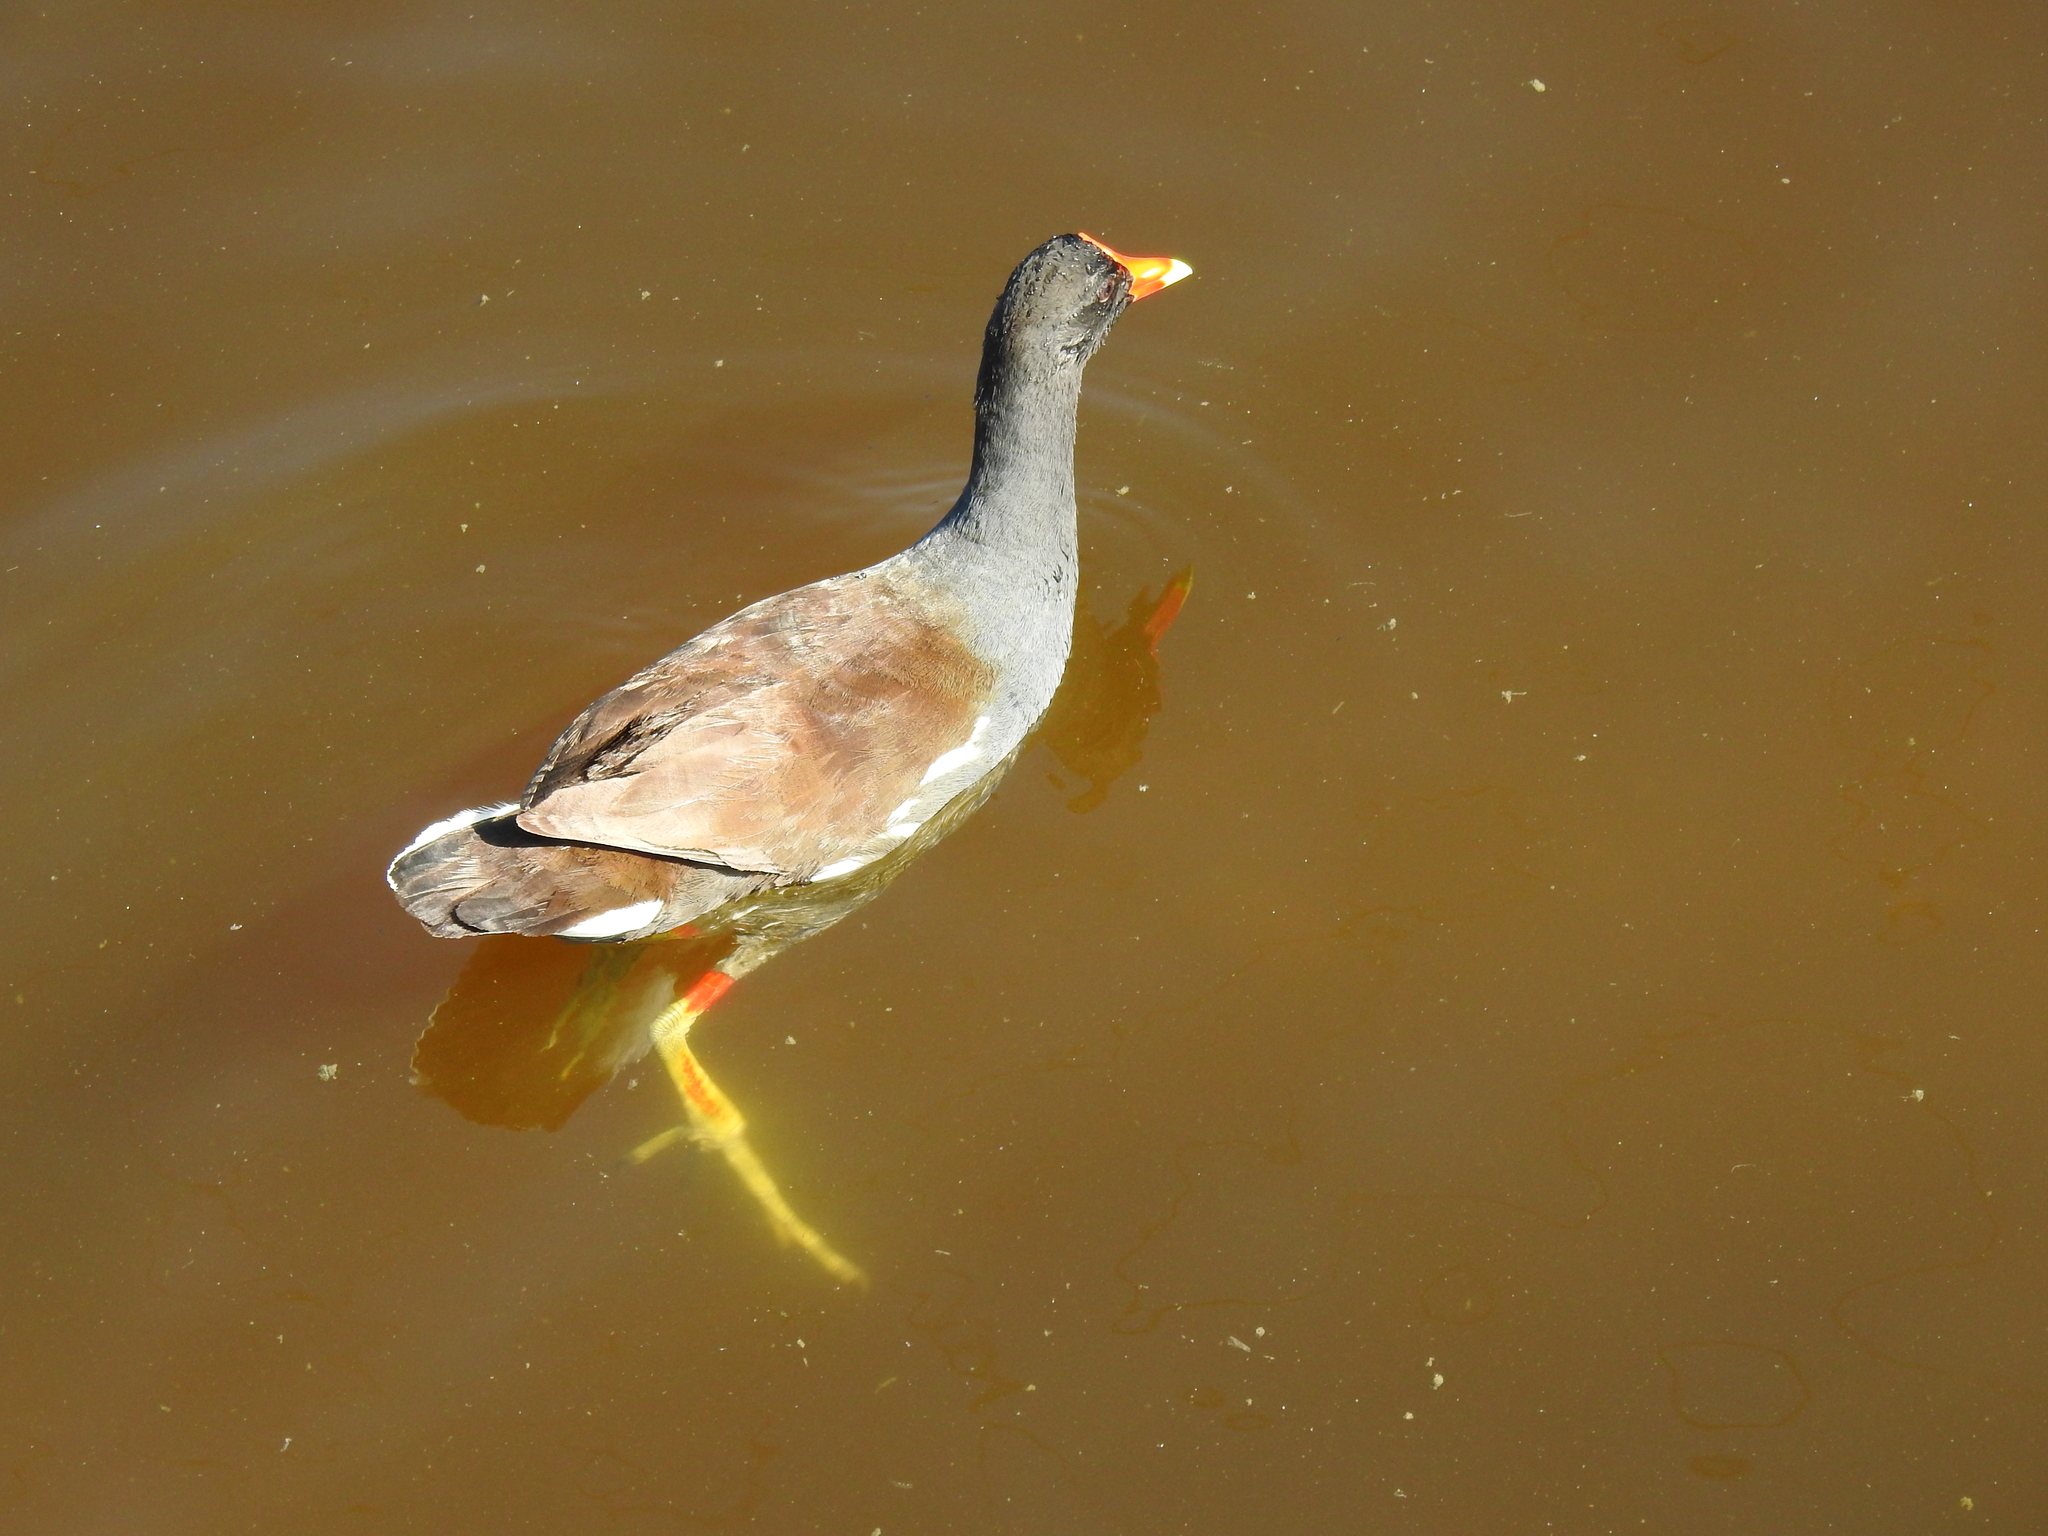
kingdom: Animalia
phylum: Chordata
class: Aves
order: Gruiformes
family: Rallidae
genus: Gallinula
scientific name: Gallinula chloropus
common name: Common moorhen
